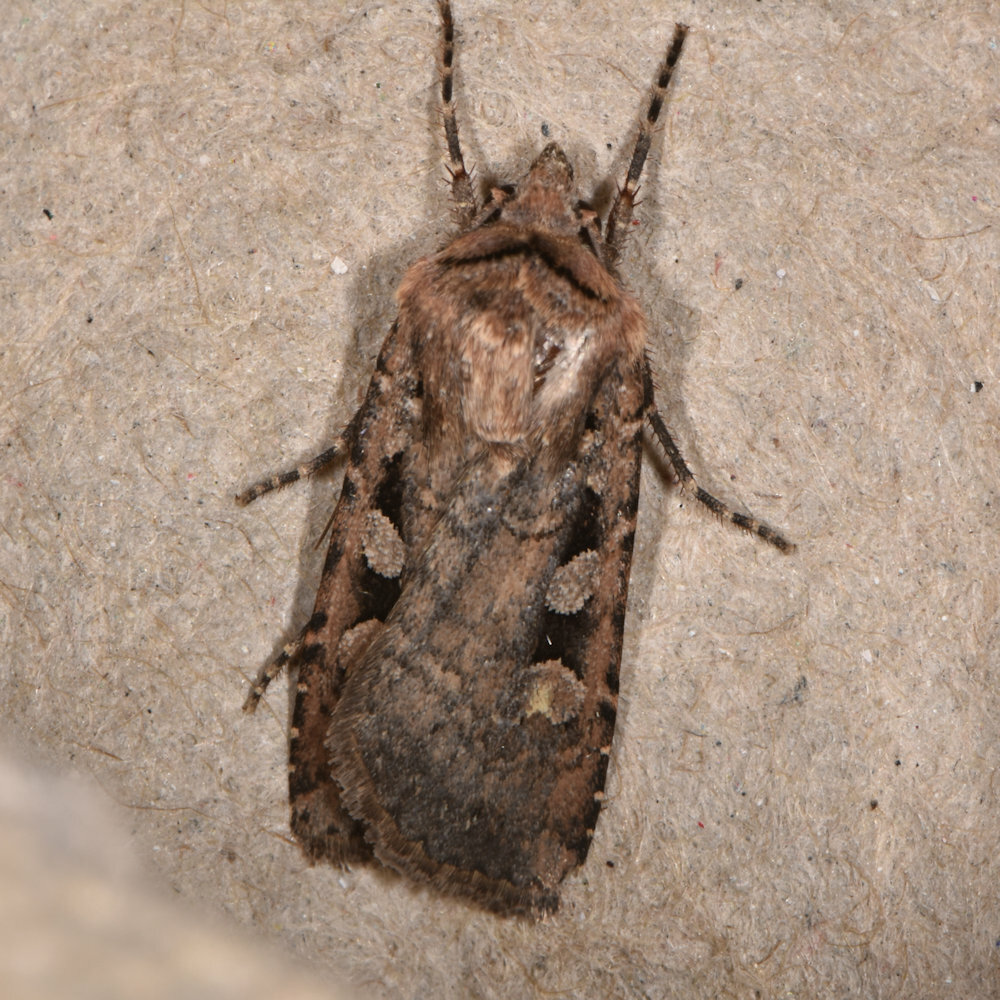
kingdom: Animalia
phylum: Arthropoda
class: Insecta
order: Lepidoptera
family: Noctuidae
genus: Euxoa
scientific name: Euxoa tessellata
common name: Striped cutworm
